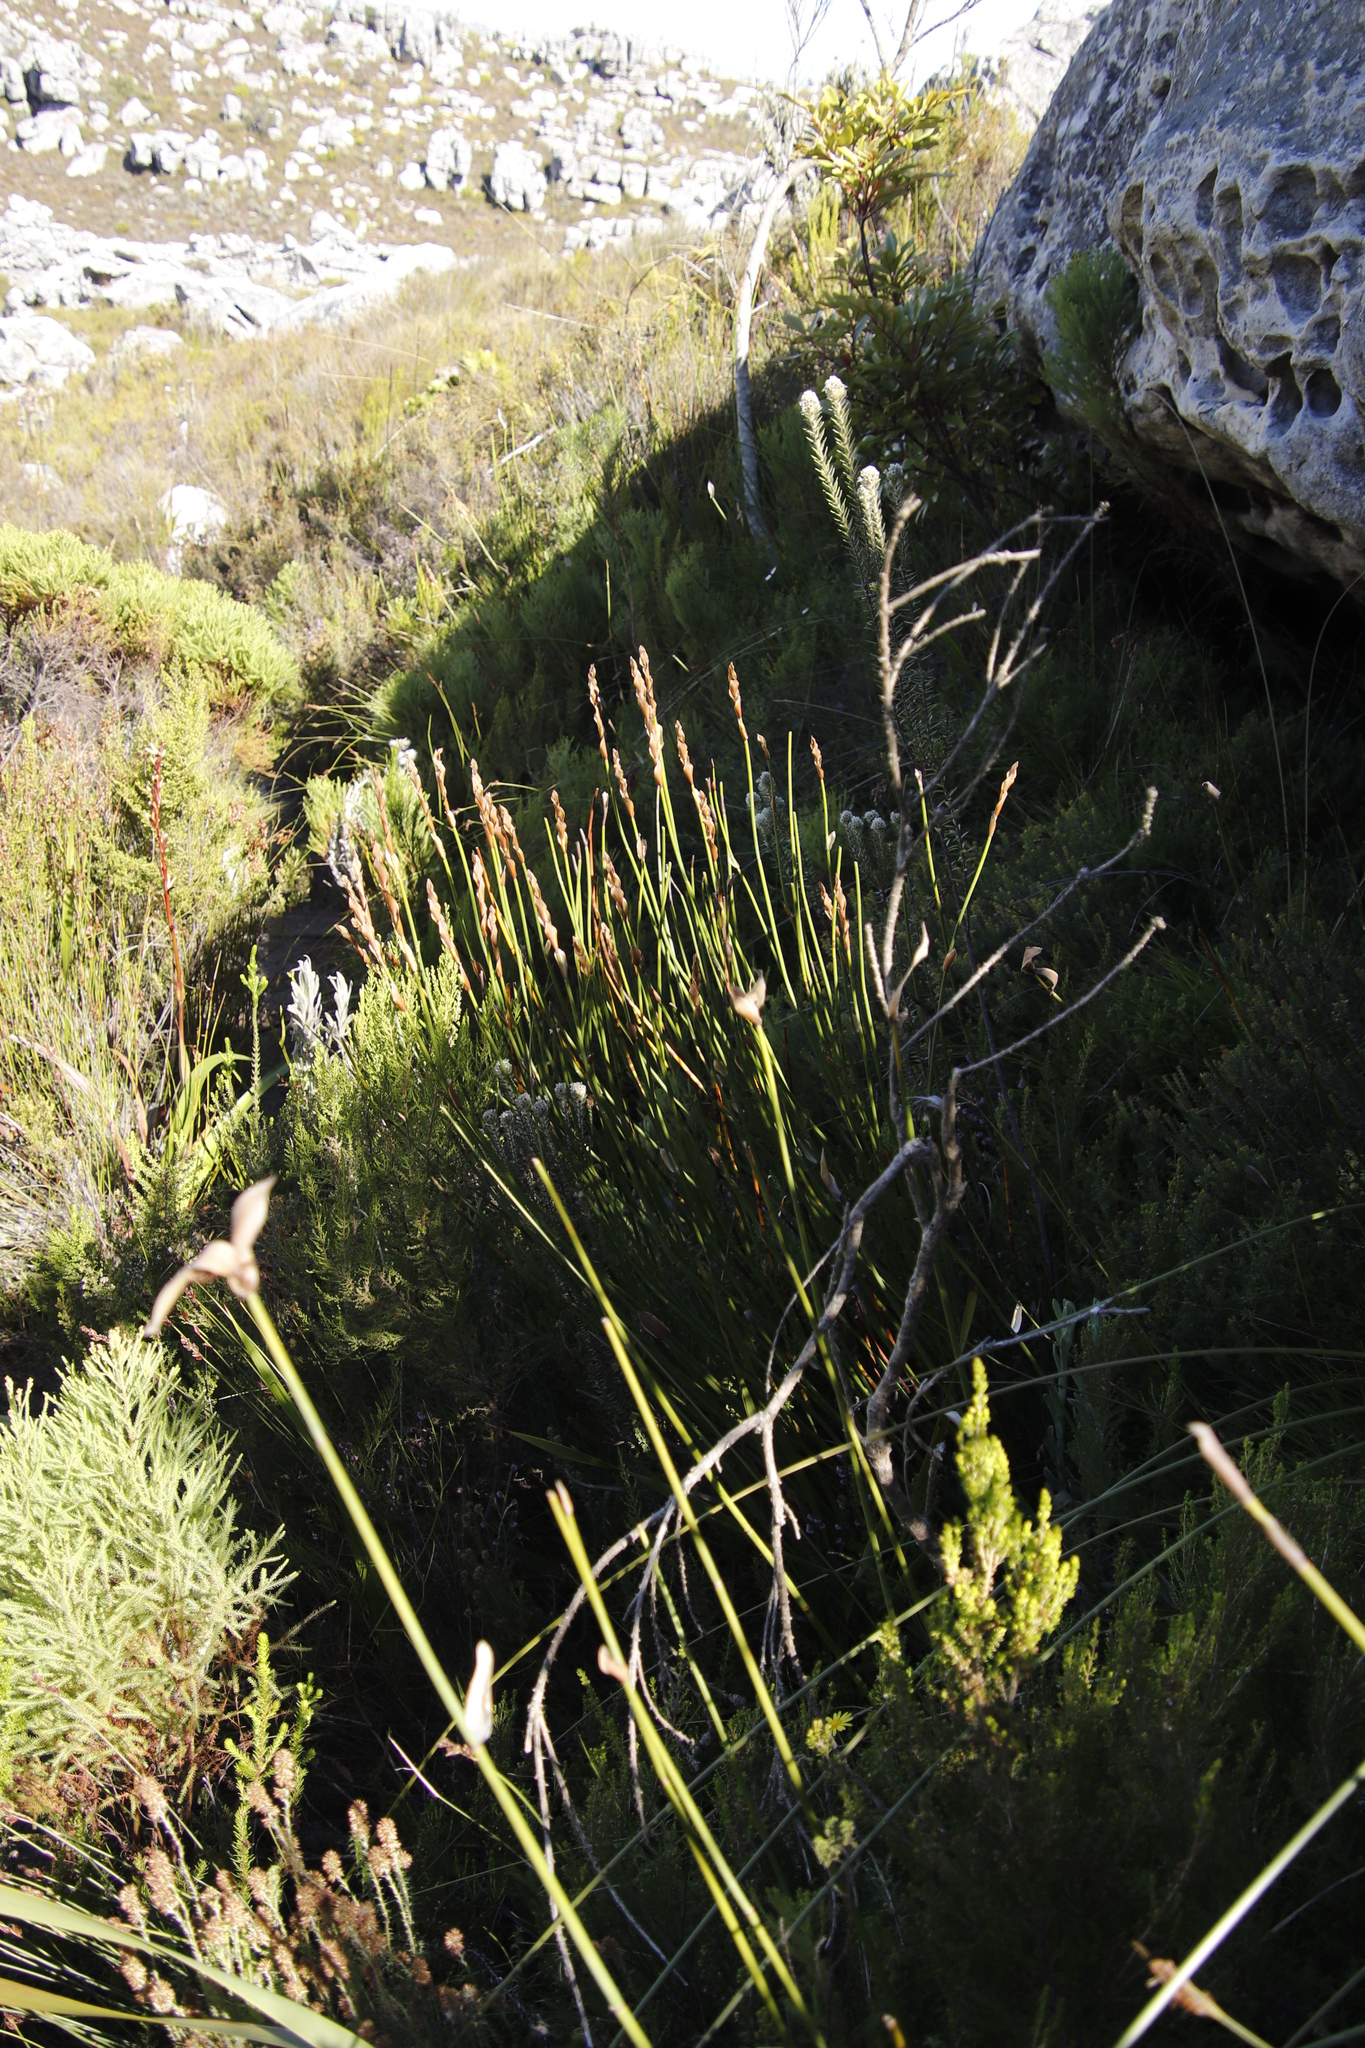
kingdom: Plantae
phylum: Tracheophyta
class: Liliopsida
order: Poales
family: Restionaceae
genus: Elegia
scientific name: Elegia racemosa
